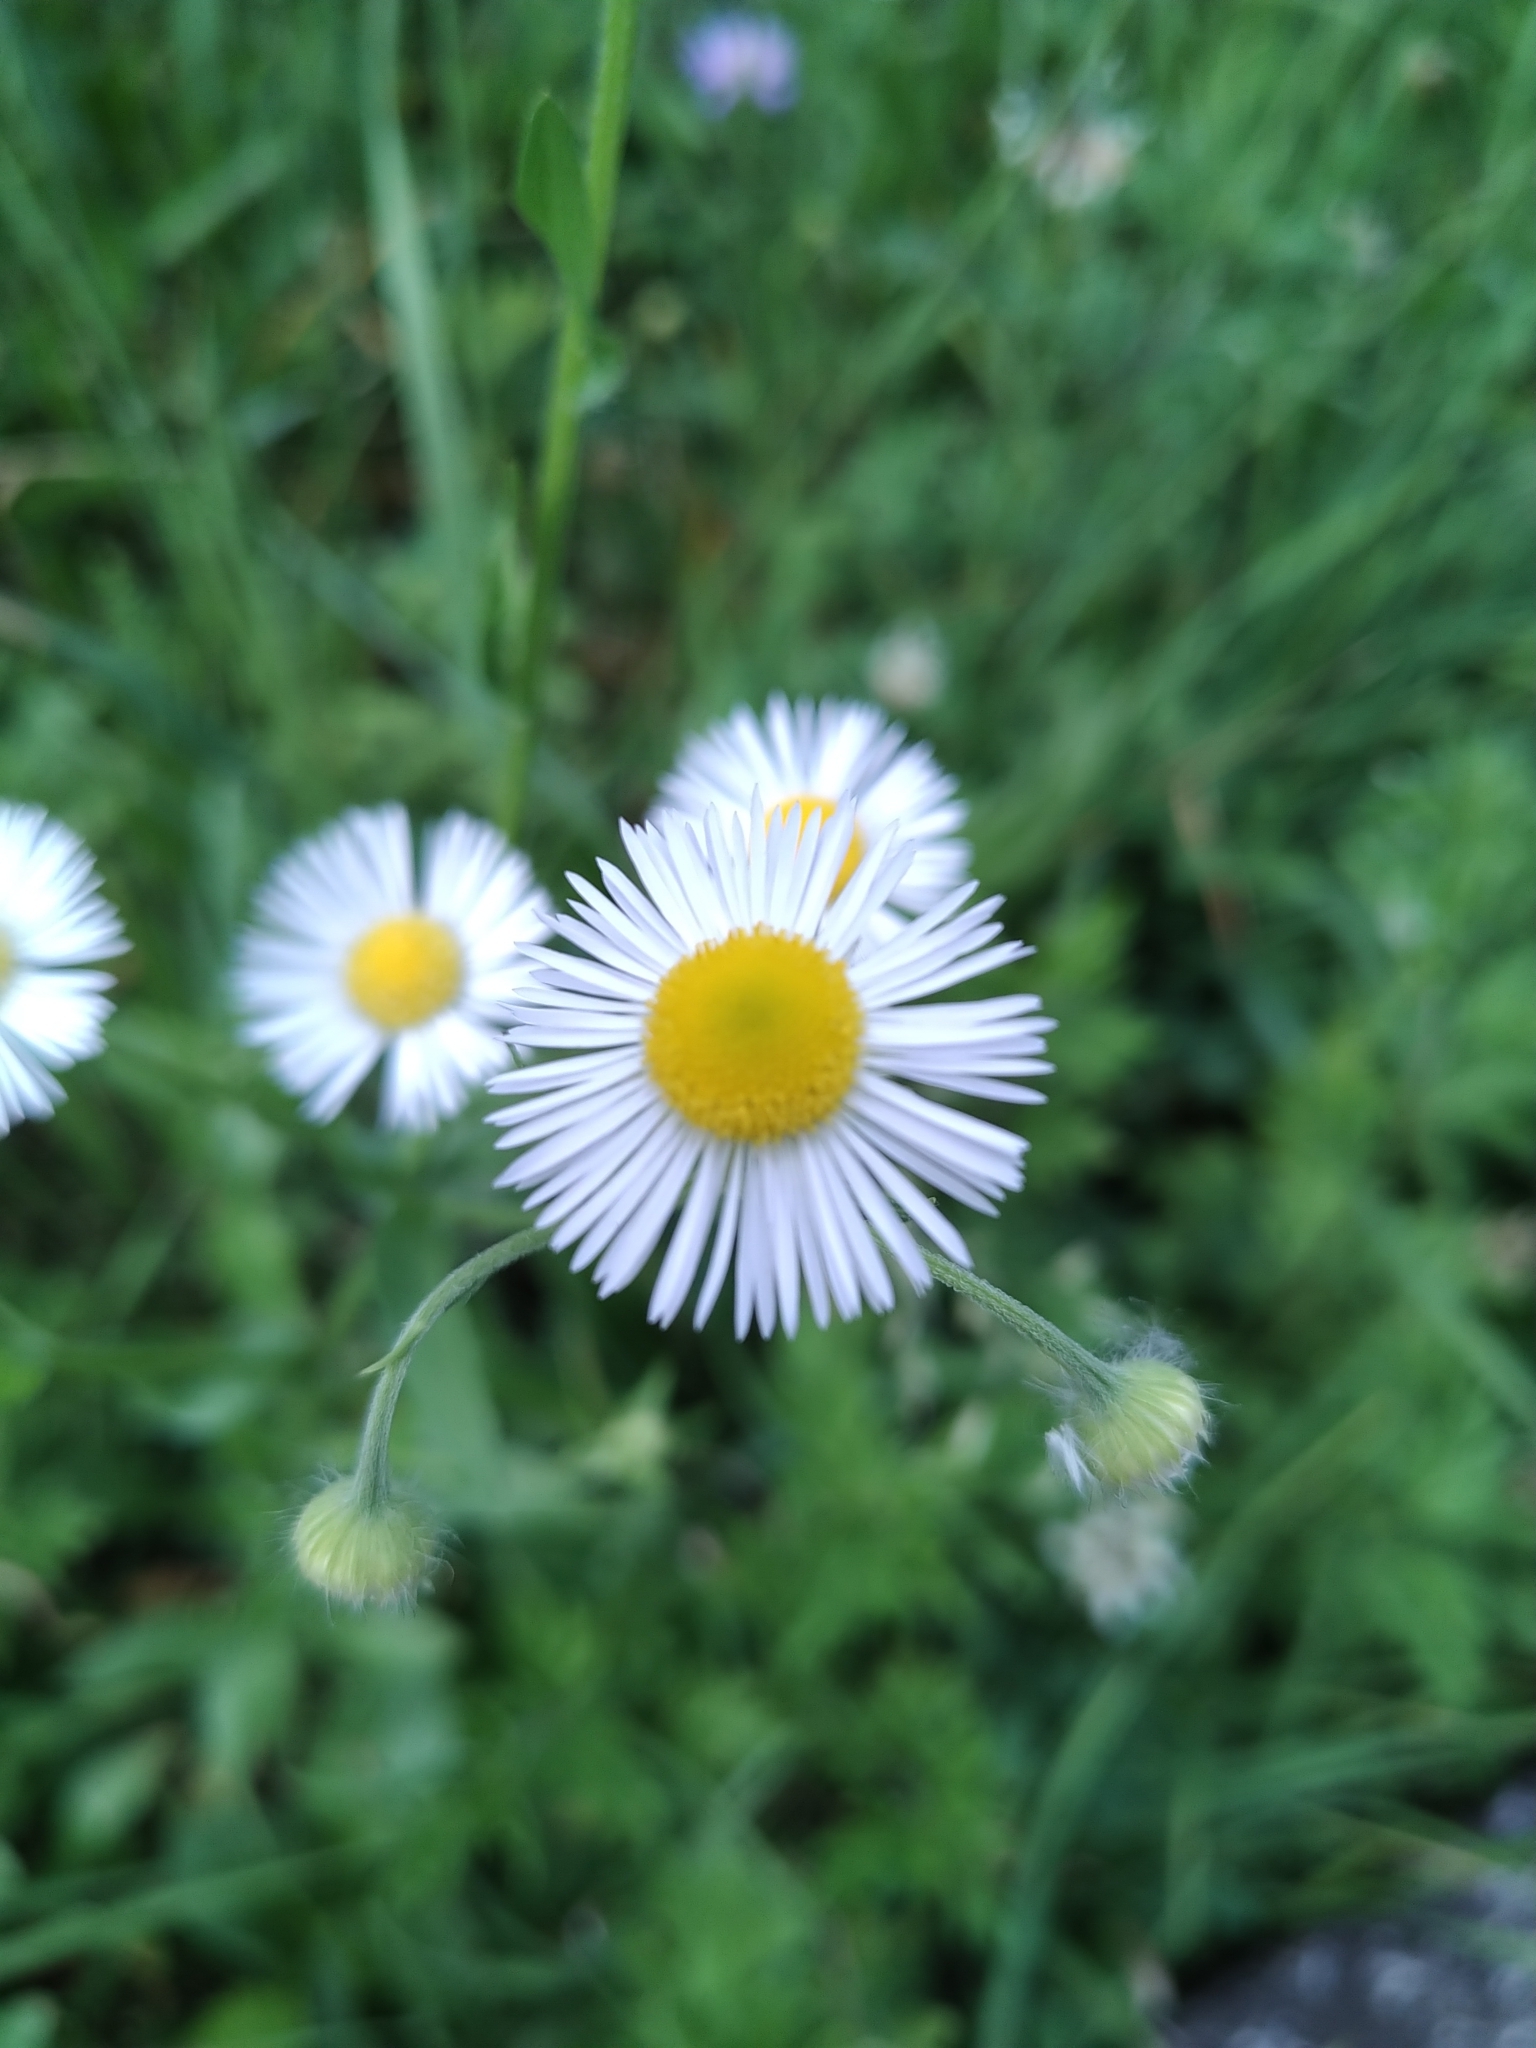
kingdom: Plantae
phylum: Tracheophyta
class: Magnoliopsida
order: Asterales
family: Asteraceae
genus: Erigeron
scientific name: Erigeron annuus
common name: Tall fleabane
